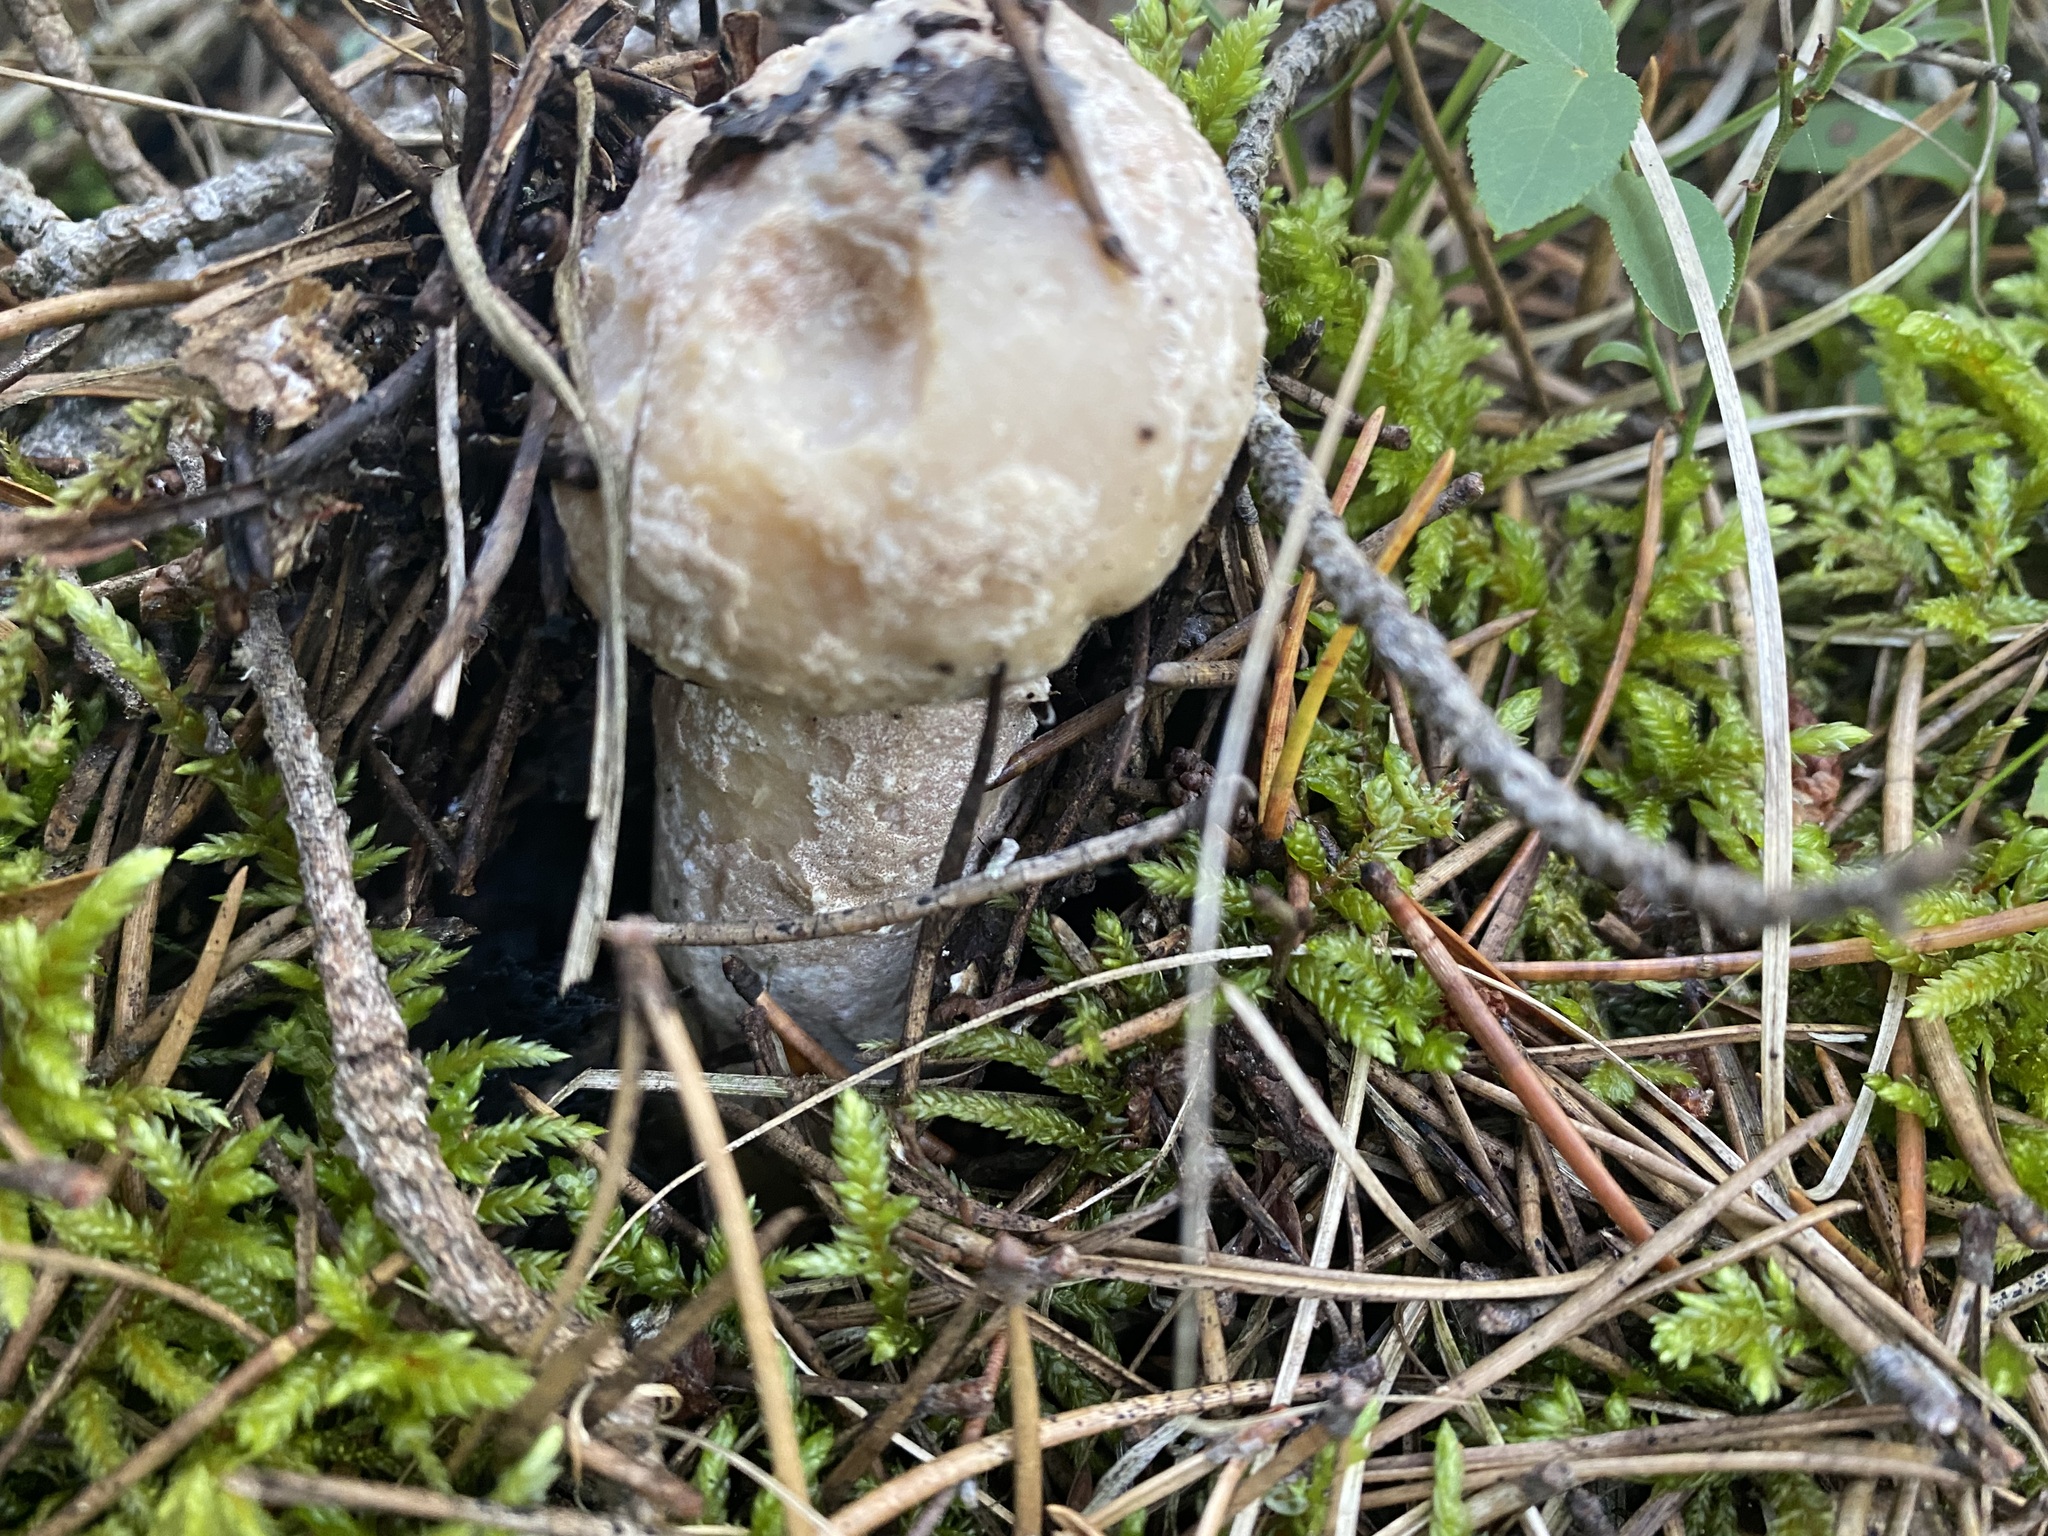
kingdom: Fungi
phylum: Ascomycota
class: Sordariomycetes
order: Hypocreales
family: Hypocreaceae
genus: Hypomyces
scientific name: Hypomyces hyalinus
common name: Amanita mold
